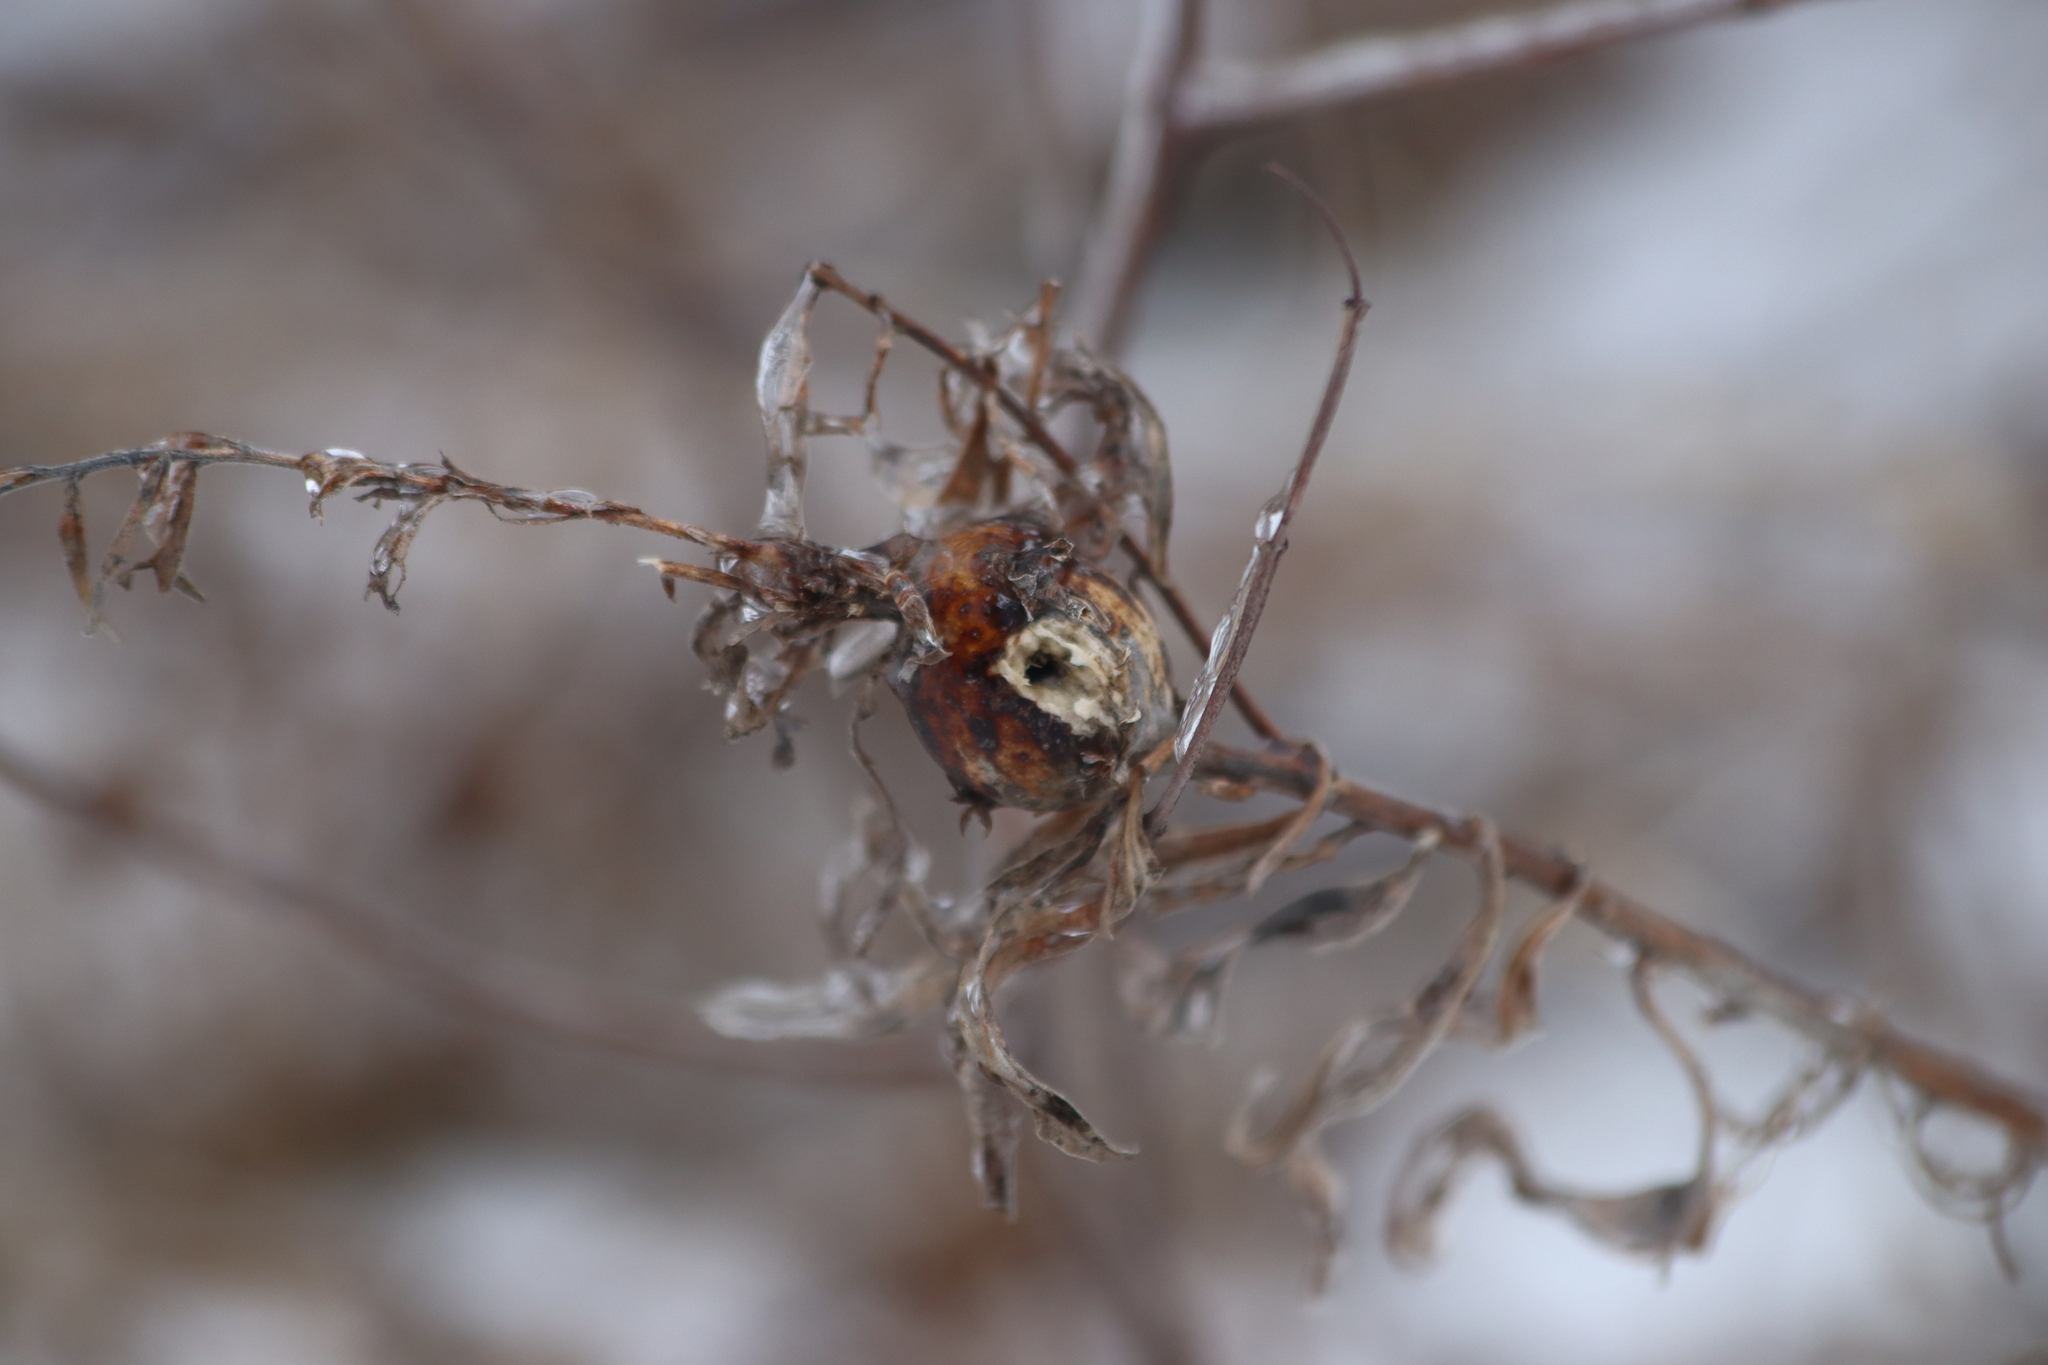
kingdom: Animalia
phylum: Arthropoda
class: Insecta
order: Diptera
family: Tephritidae
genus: Eurosta
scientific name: Eurosta solidaginis
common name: Goldenrod gall fly
